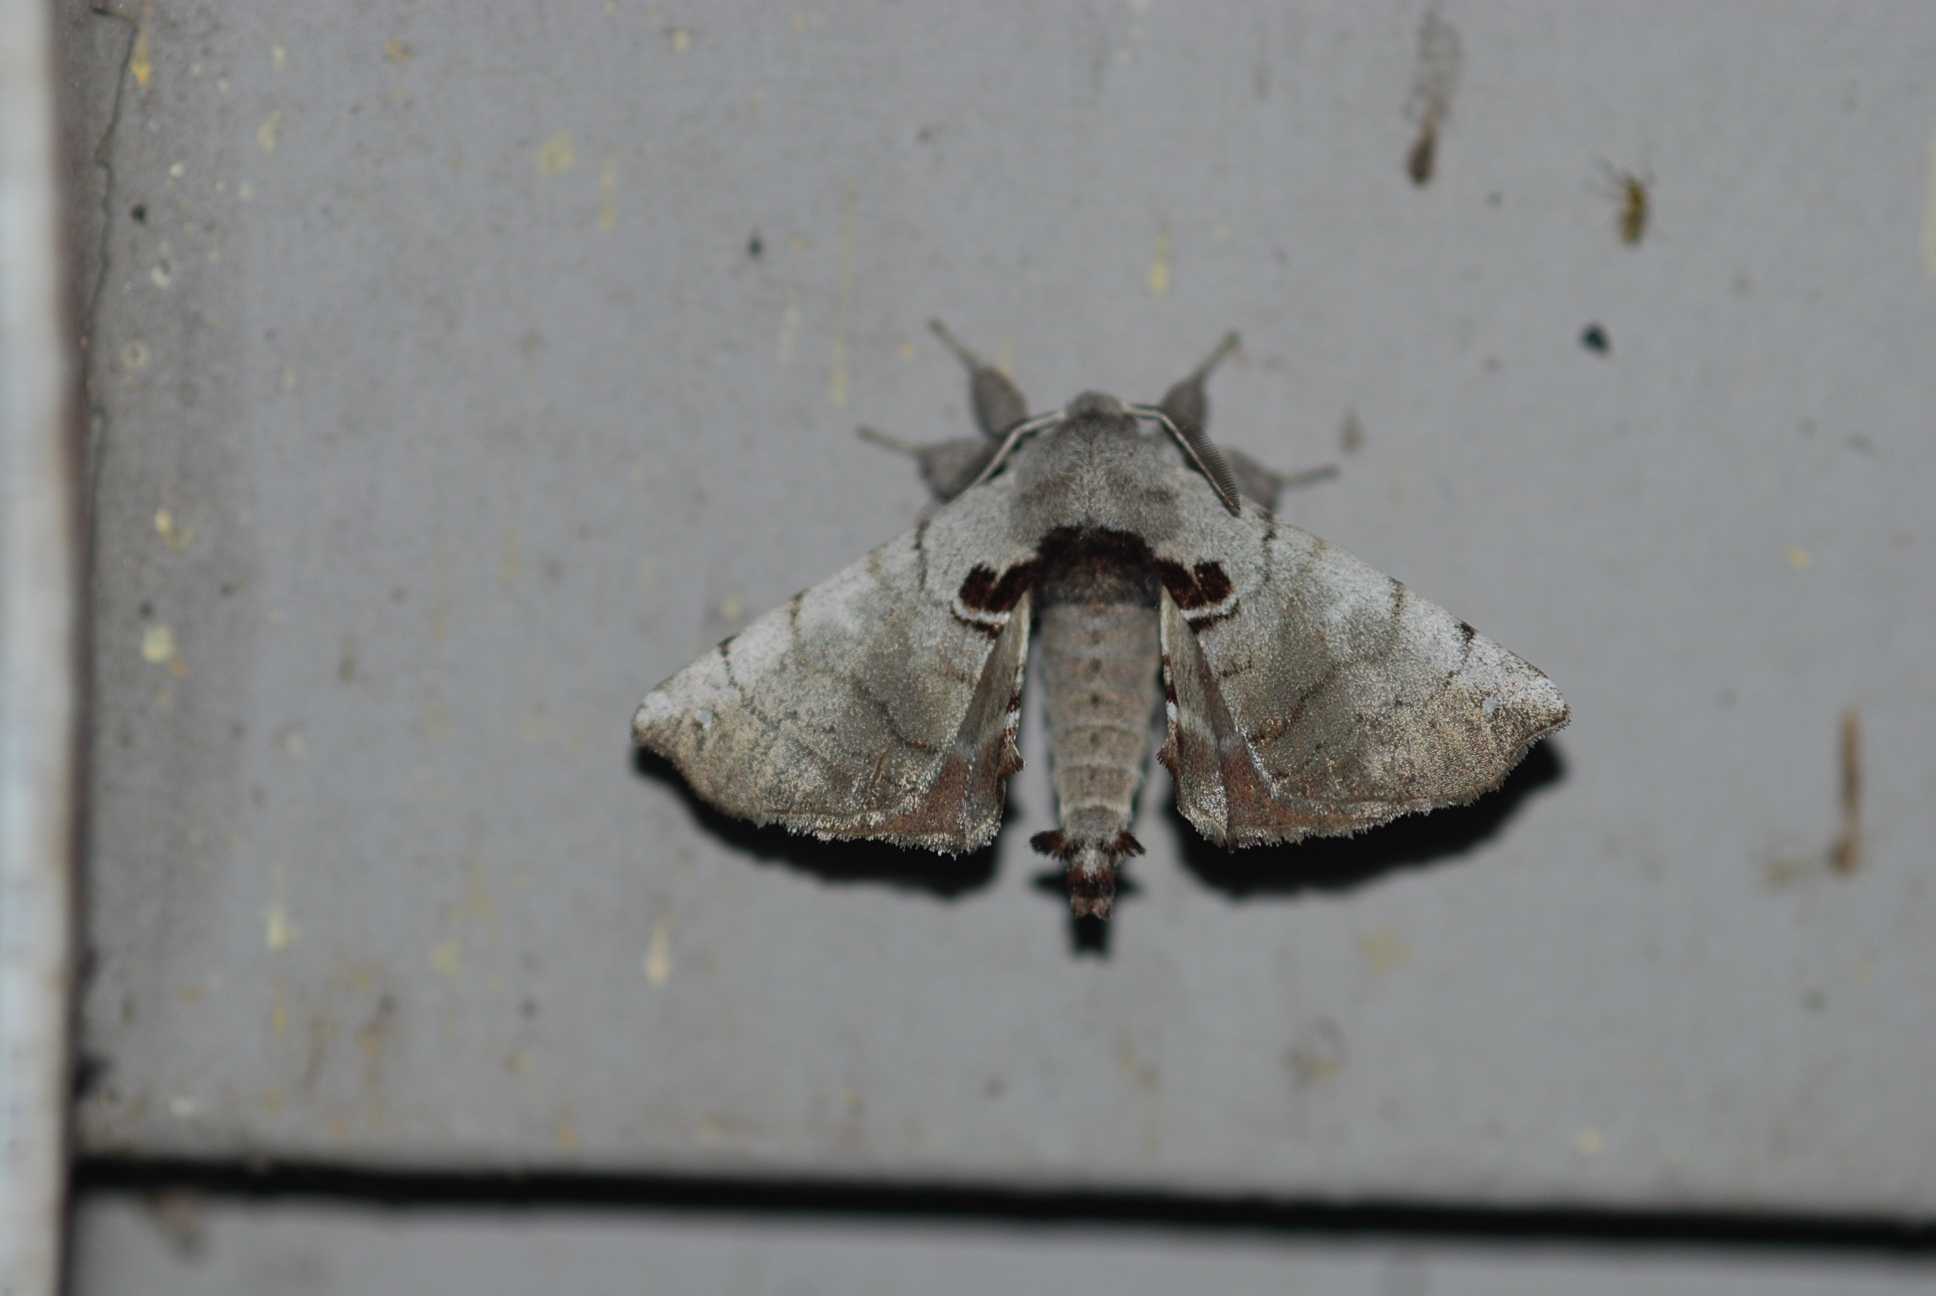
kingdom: Animalia
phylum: Arthropoda
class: Insecta
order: Lepidoptera
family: Apatelodidae
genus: Hygrochroa
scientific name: Hygrochroa Apatelodes torrefacta
